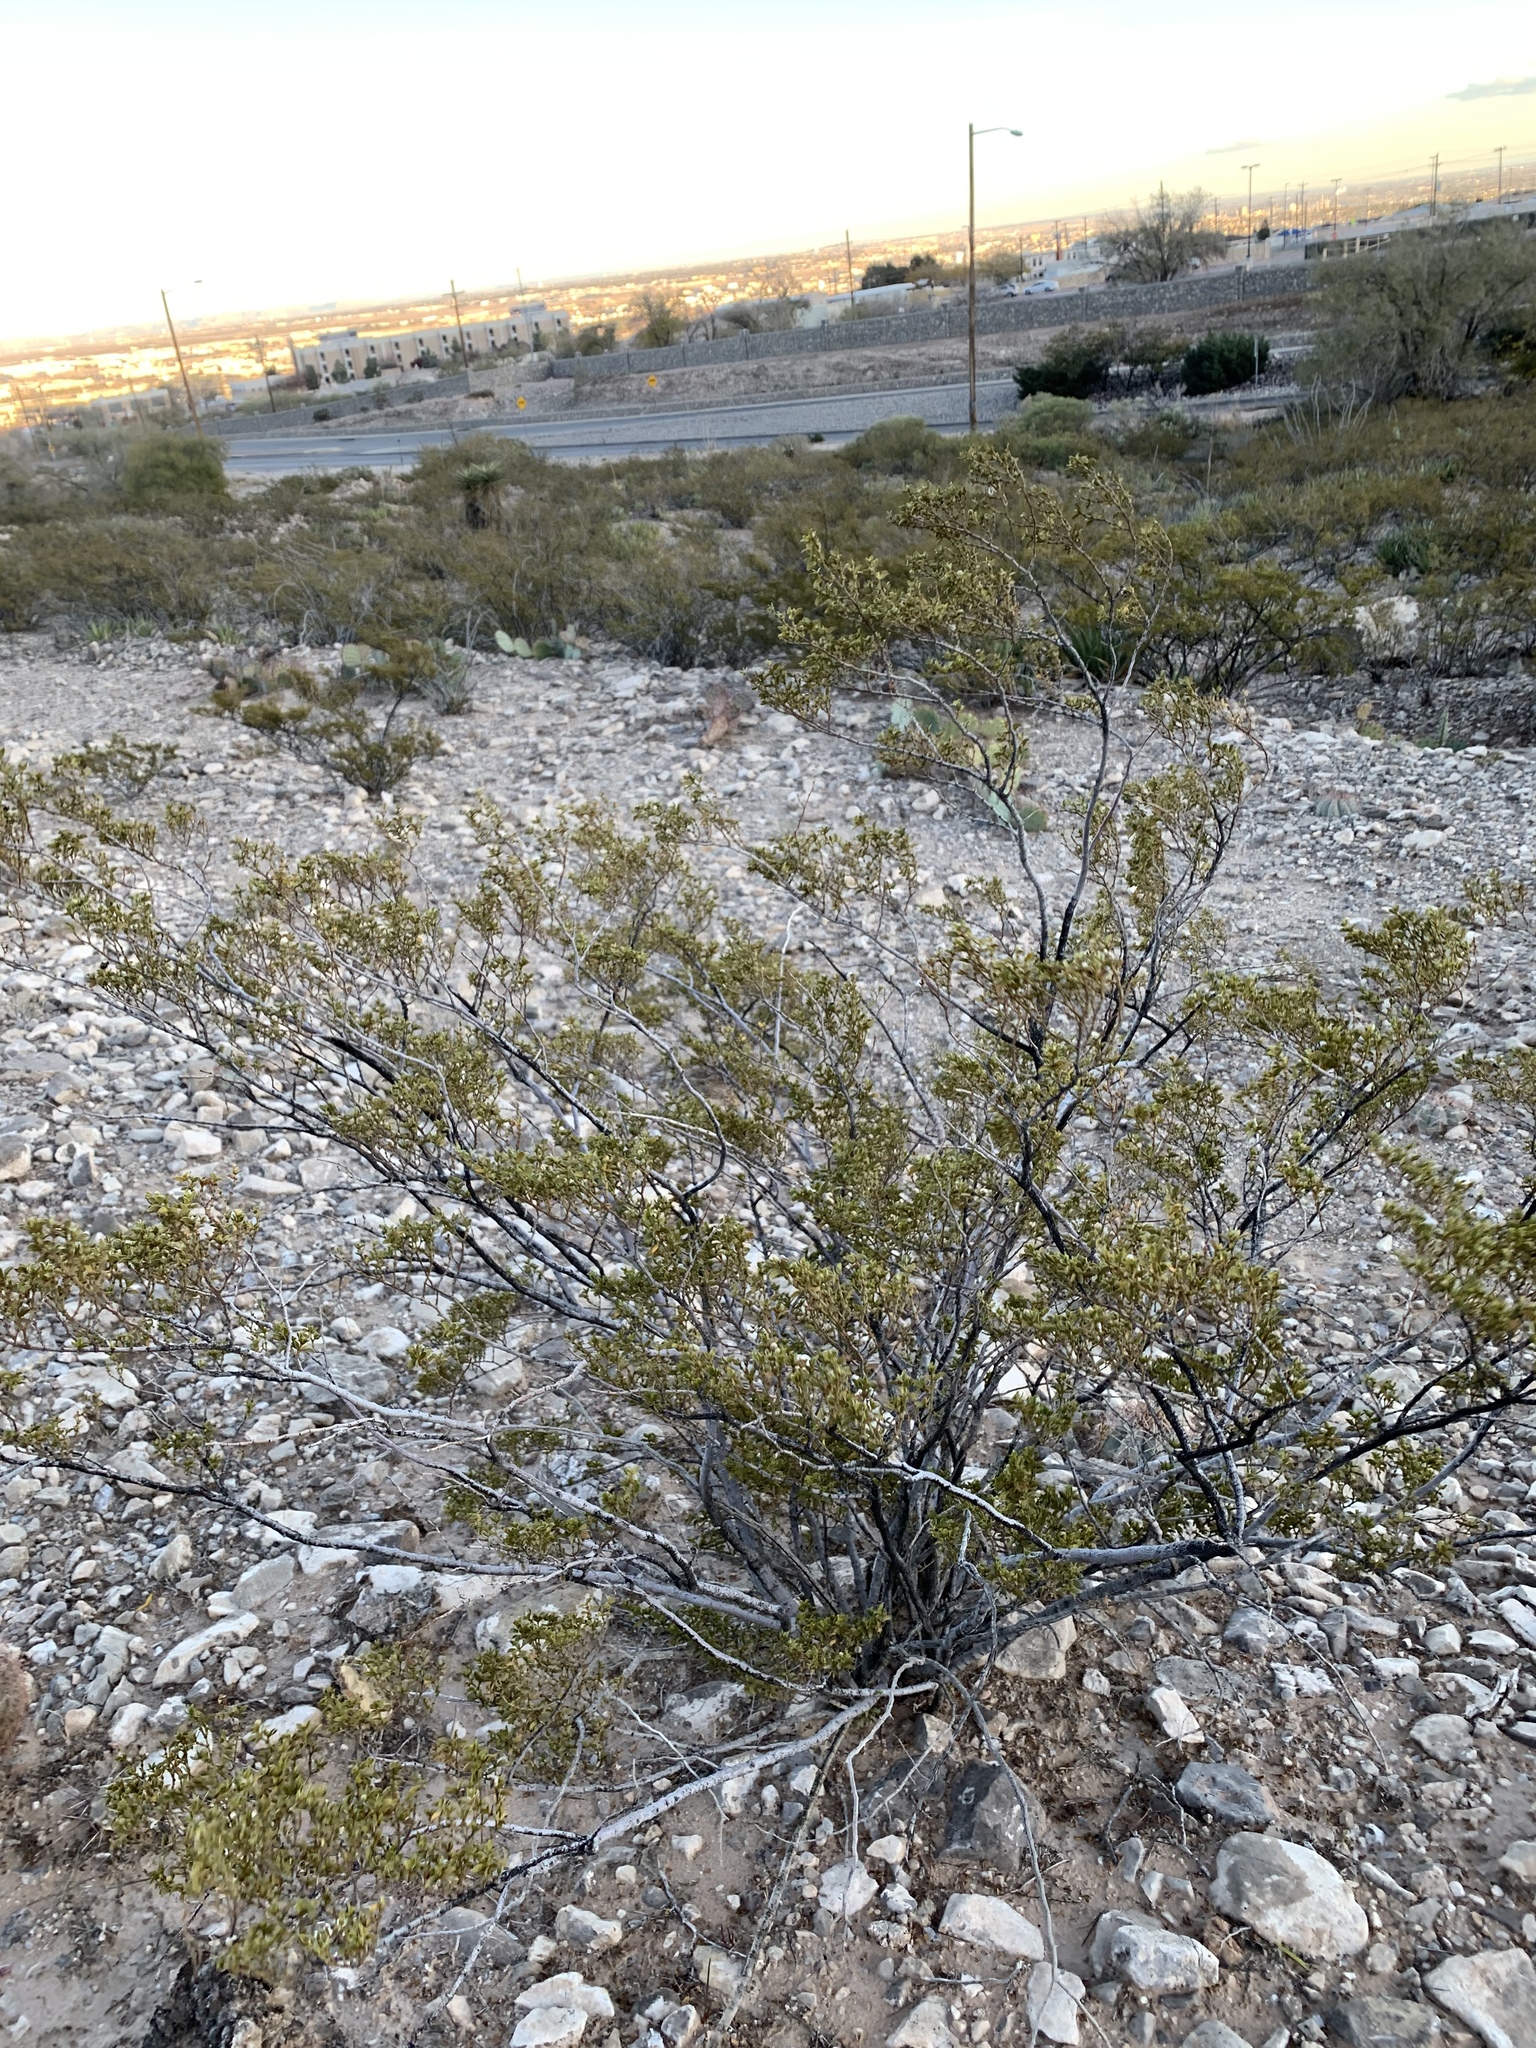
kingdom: Plantae
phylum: Tracheophyta
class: Magnoliopsida
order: Zygophyllales
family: Zygophyllaceae
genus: Larrea
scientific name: Larrea tridentata
